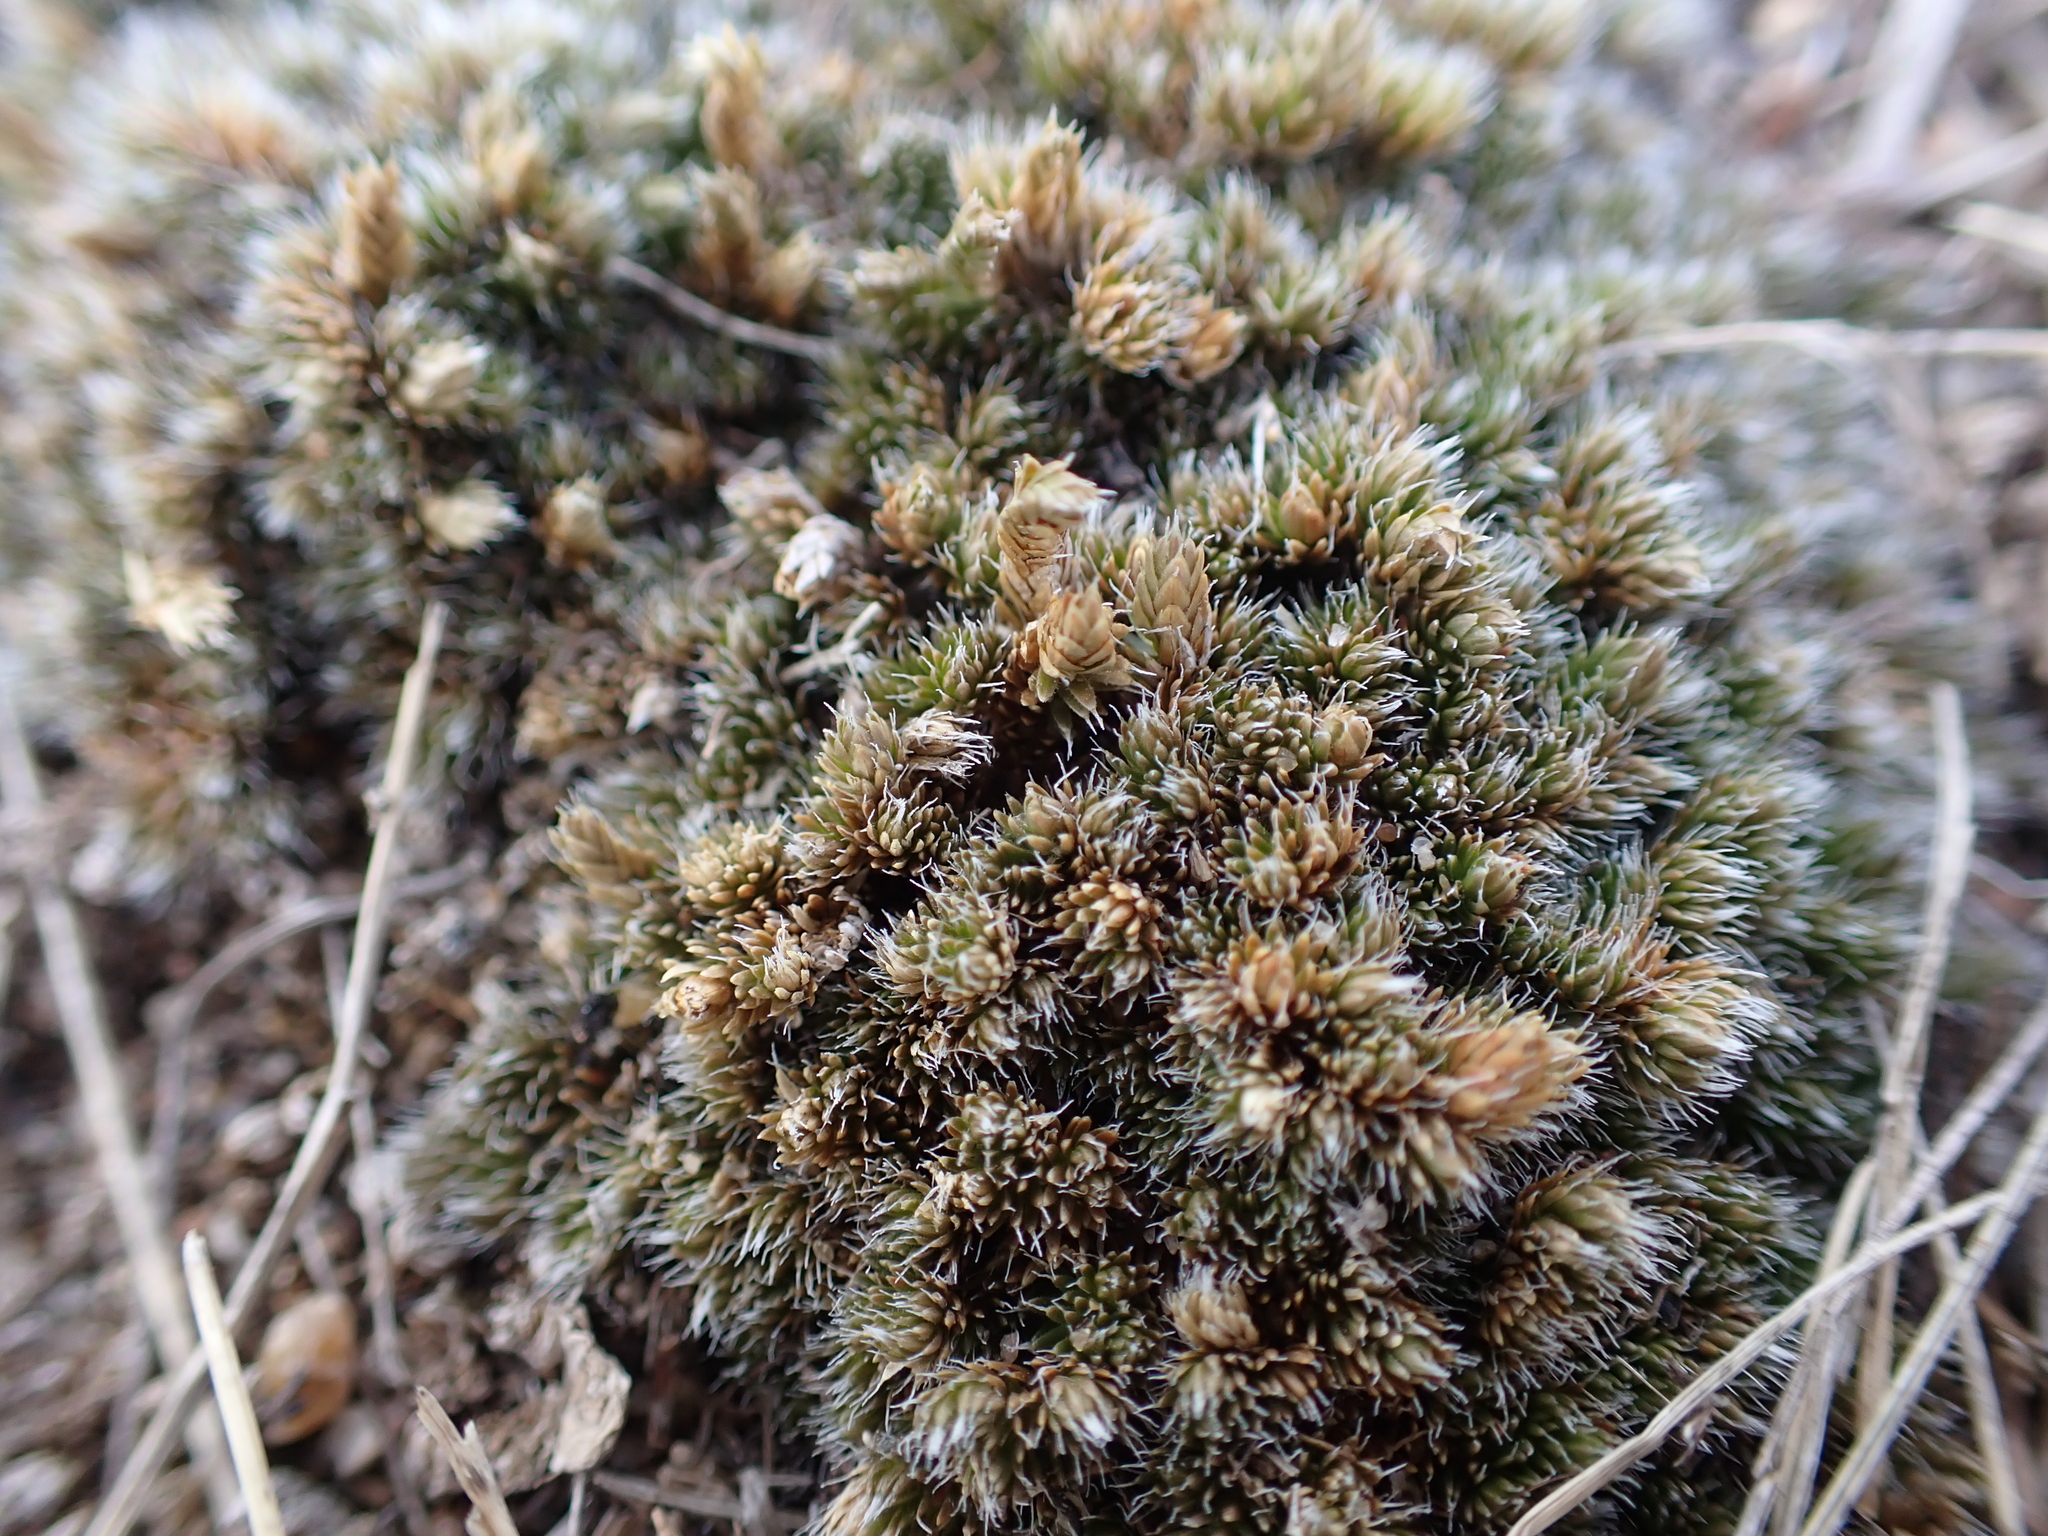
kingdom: Plantae
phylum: Tracheophyta
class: Lycopodiopsida
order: Selaginellales
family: Selaginellaceae
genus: Selaginella
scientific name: Selaginella densa
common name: Mountain spike-moss
